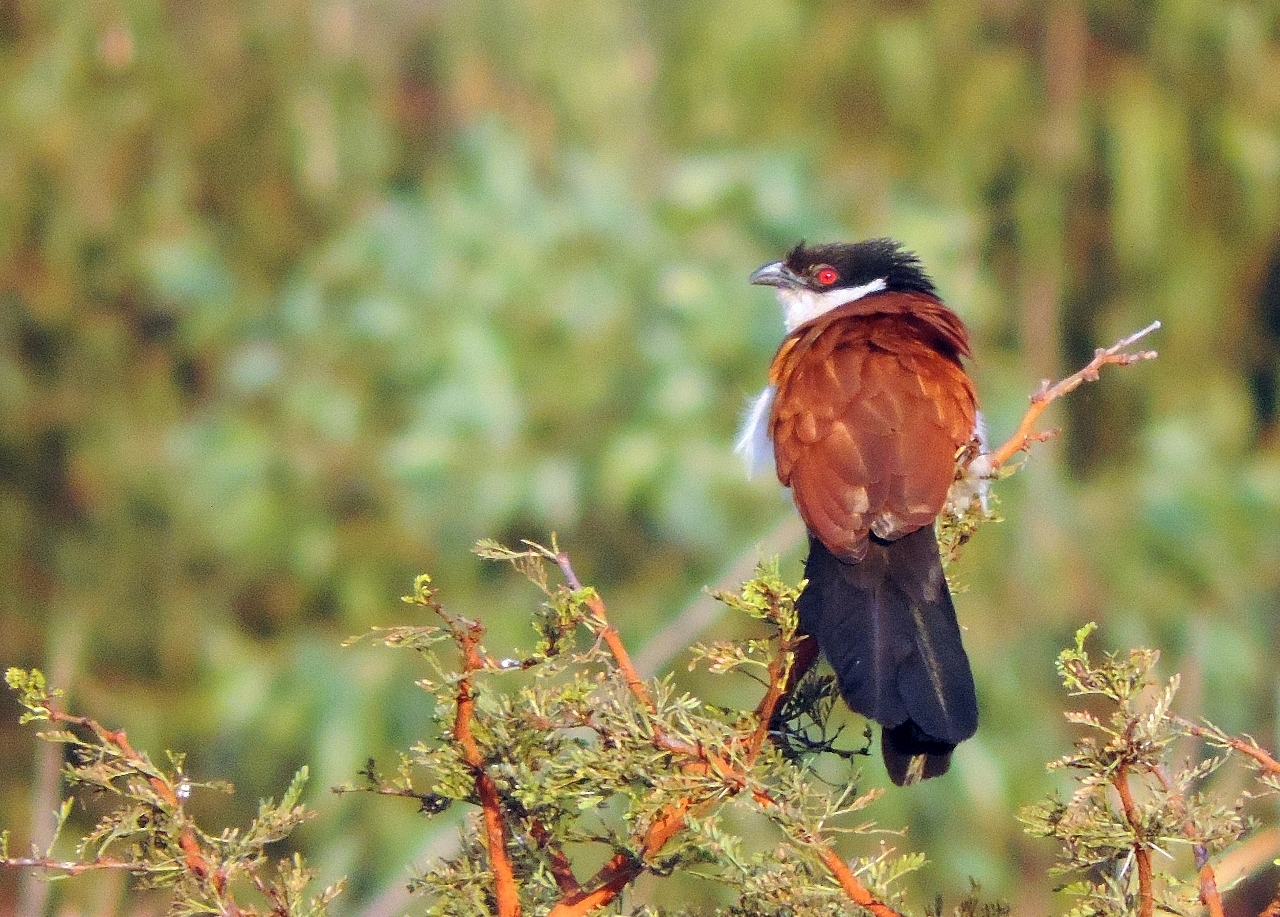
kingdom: Animalia
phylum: Chordata
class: Aves
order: Cuculiformes
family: Cuculidae
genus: Centropus
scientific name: Centropus senegalensis
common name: Senegal coucal
